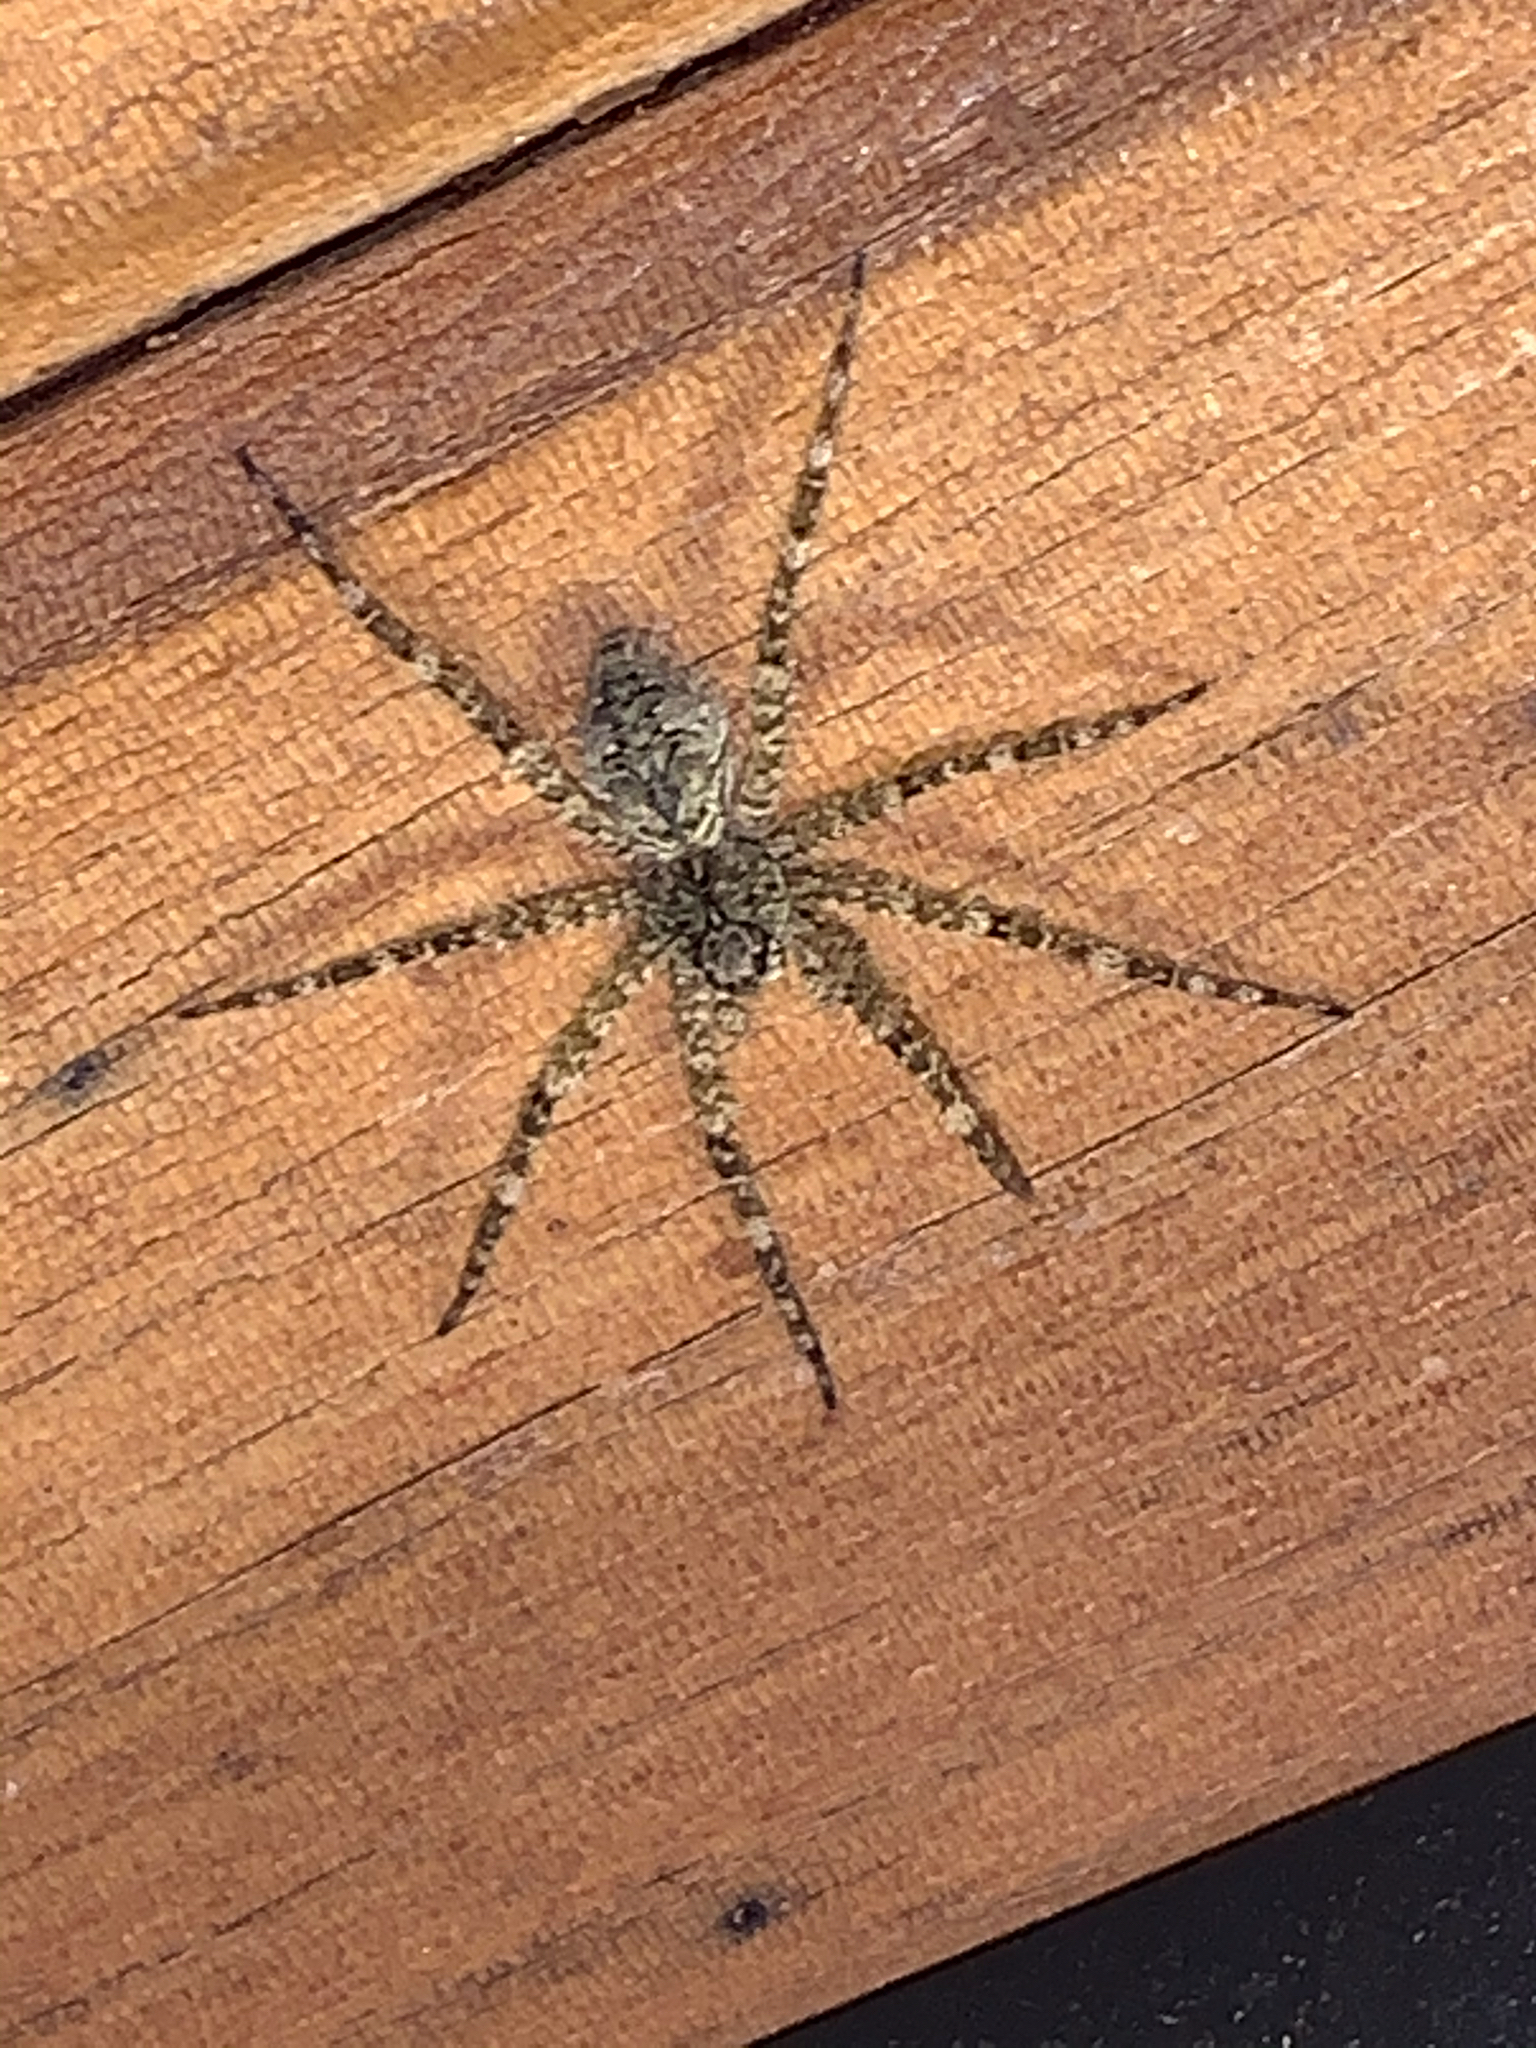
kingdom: Animalia
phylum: Arthropoda
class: Arachnida
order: Araneae
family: Pisauridae
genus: Dolomedes
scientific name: Dolomedes albineus
